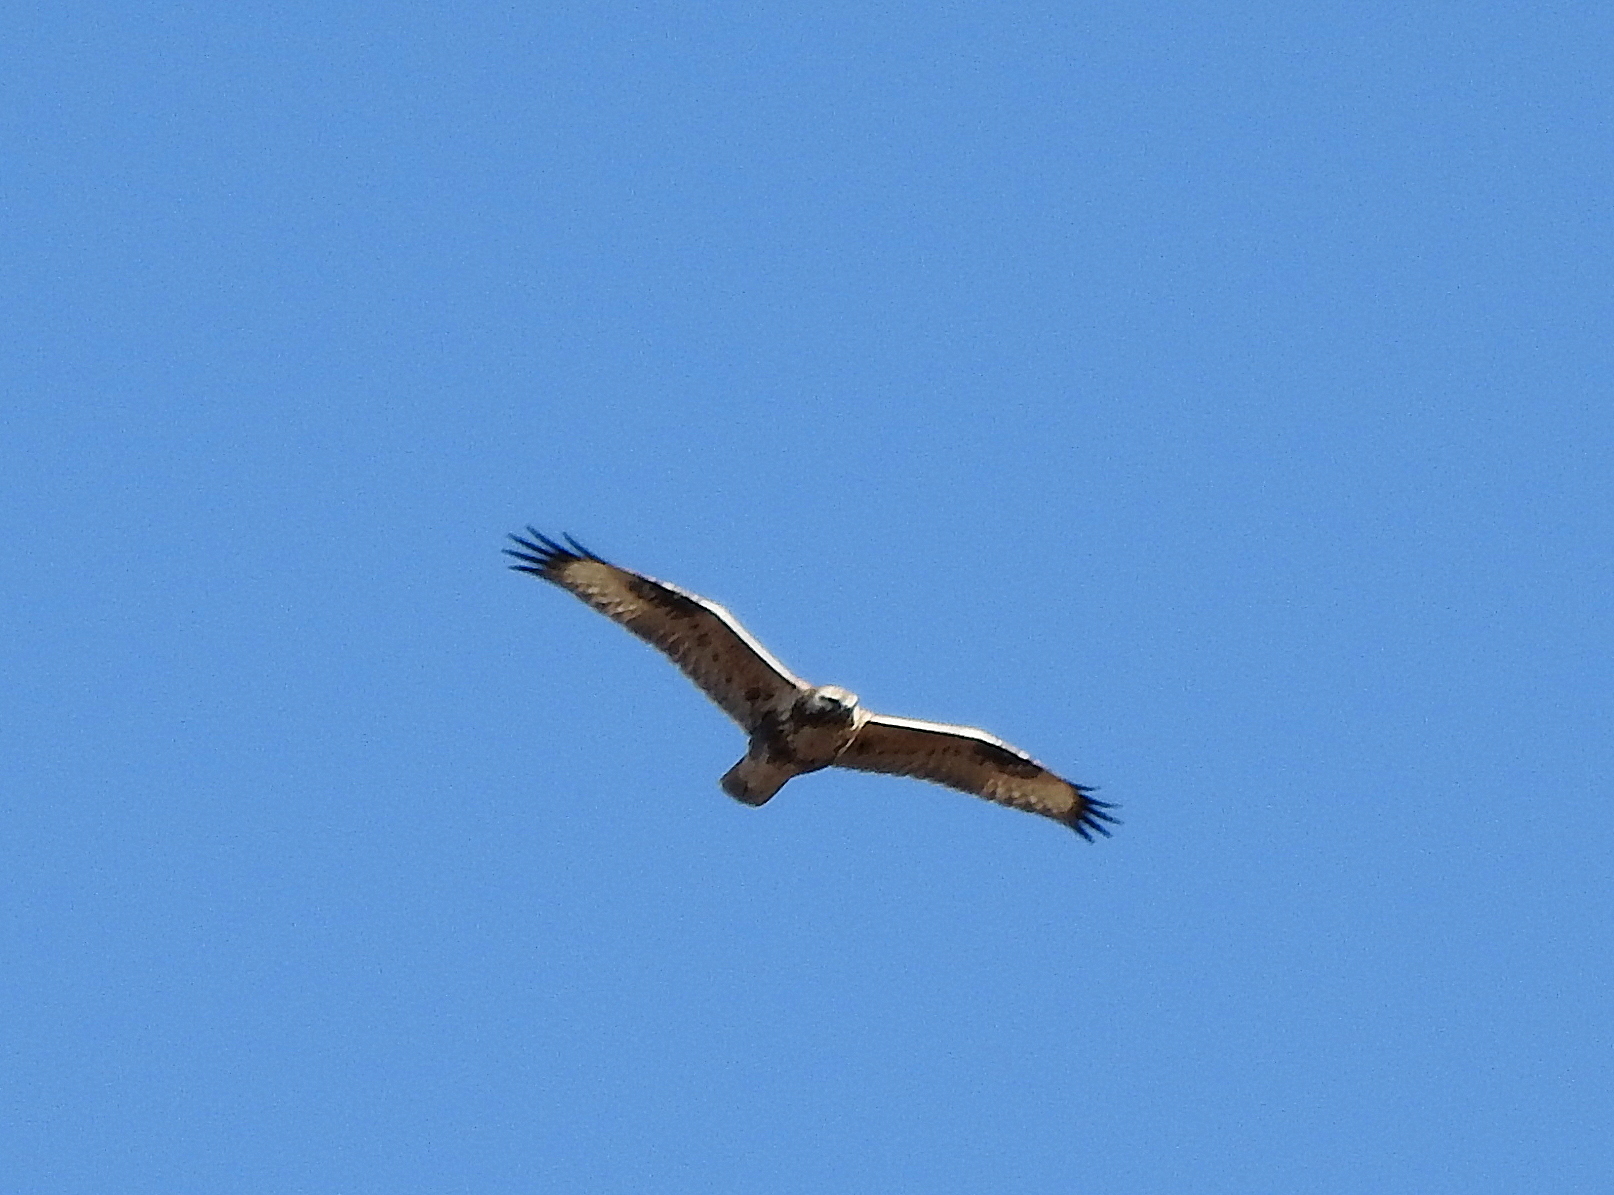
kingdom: Animalia
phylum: Chordata
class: Aves
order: Accipitriformes
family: Accipitridae
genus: Buteo
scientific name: Buteo hemilasius
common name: Upland buzzard
